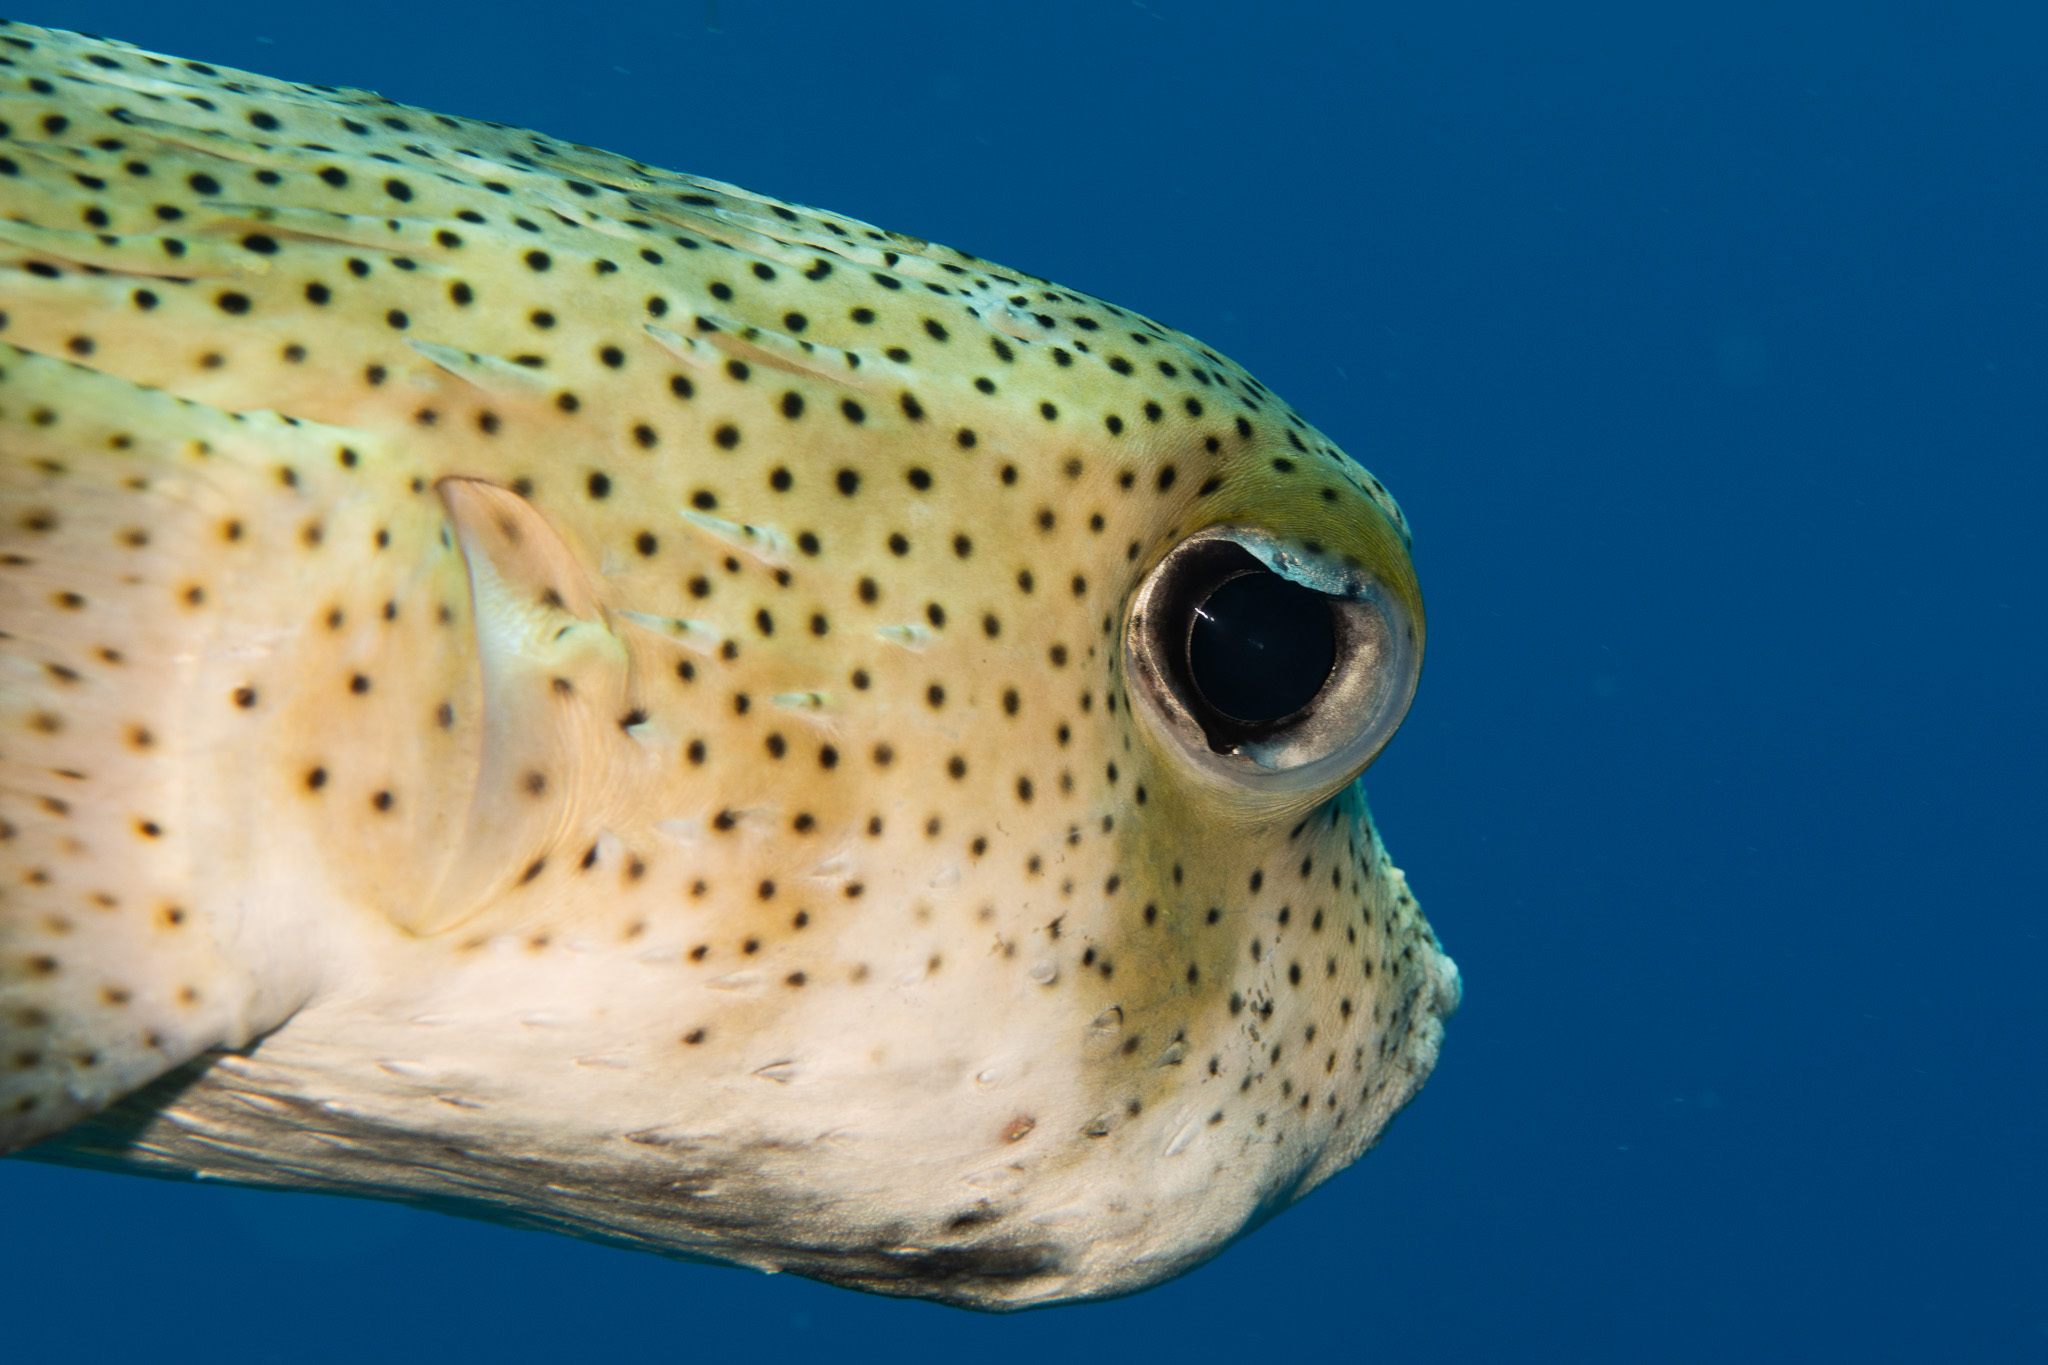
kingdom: Animalia
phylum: Chordata
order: Tetraodontiformes
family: Diodontidae
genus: Diodon
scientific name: Diodon hystrix
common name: Giant porcupinefish
